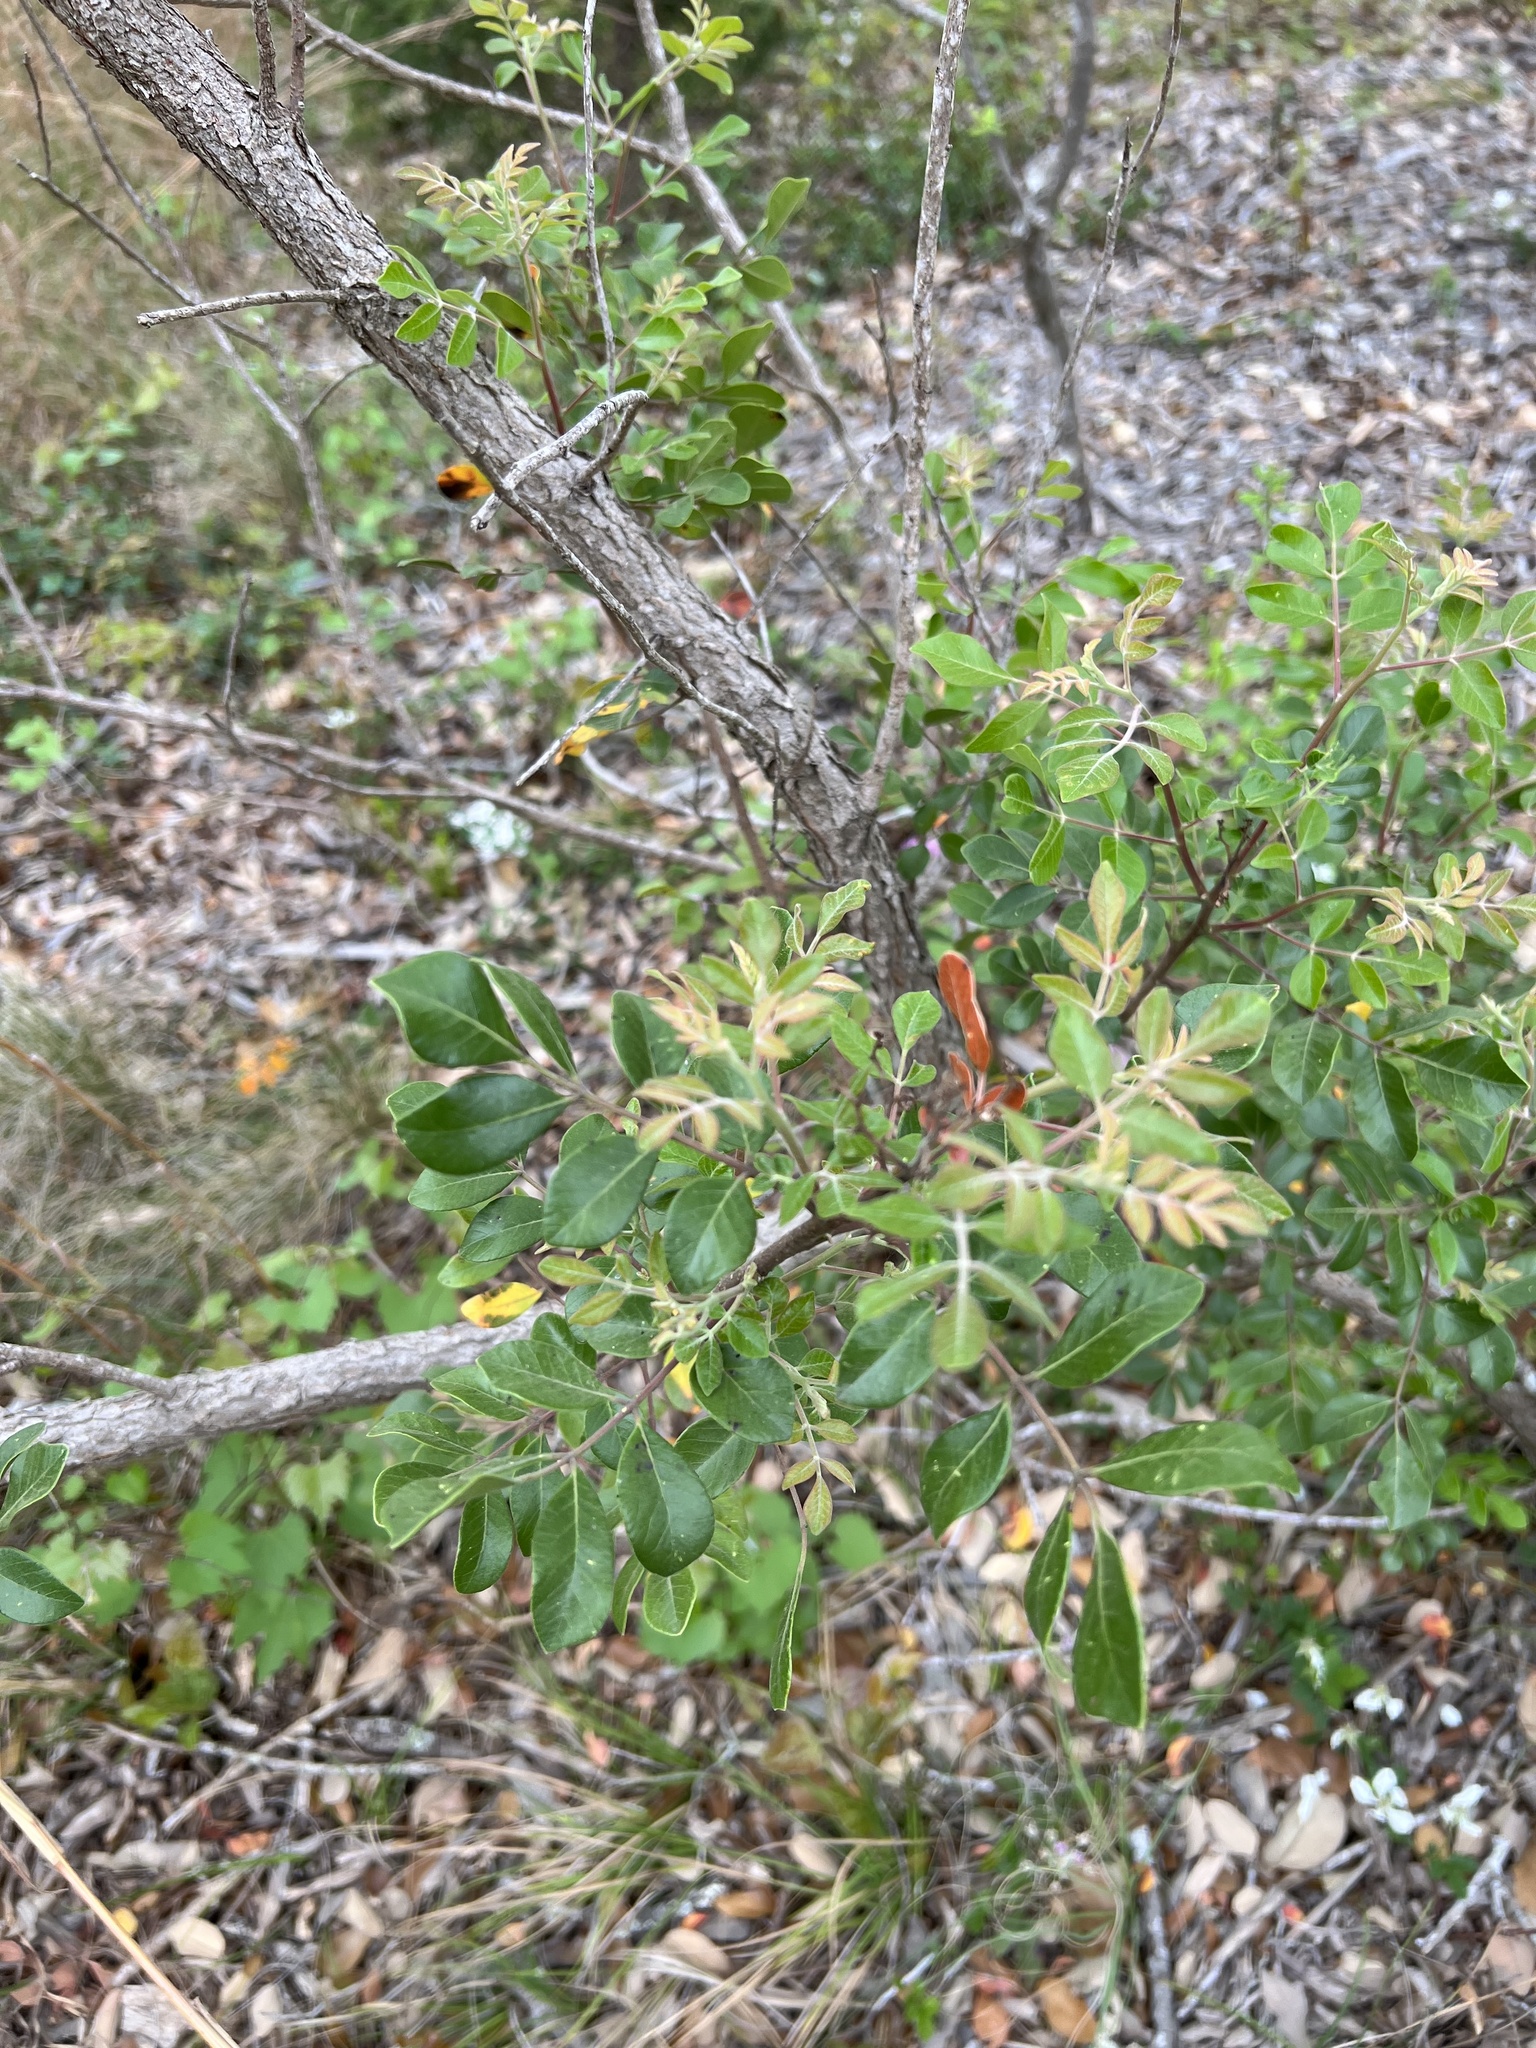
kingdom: Plantae
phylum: Tracheophyta
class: Magnoliopsida
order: Sapindales
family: Anacardiaceae
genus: Rhus
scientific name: Rhus virens
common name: Evergreen sumac
